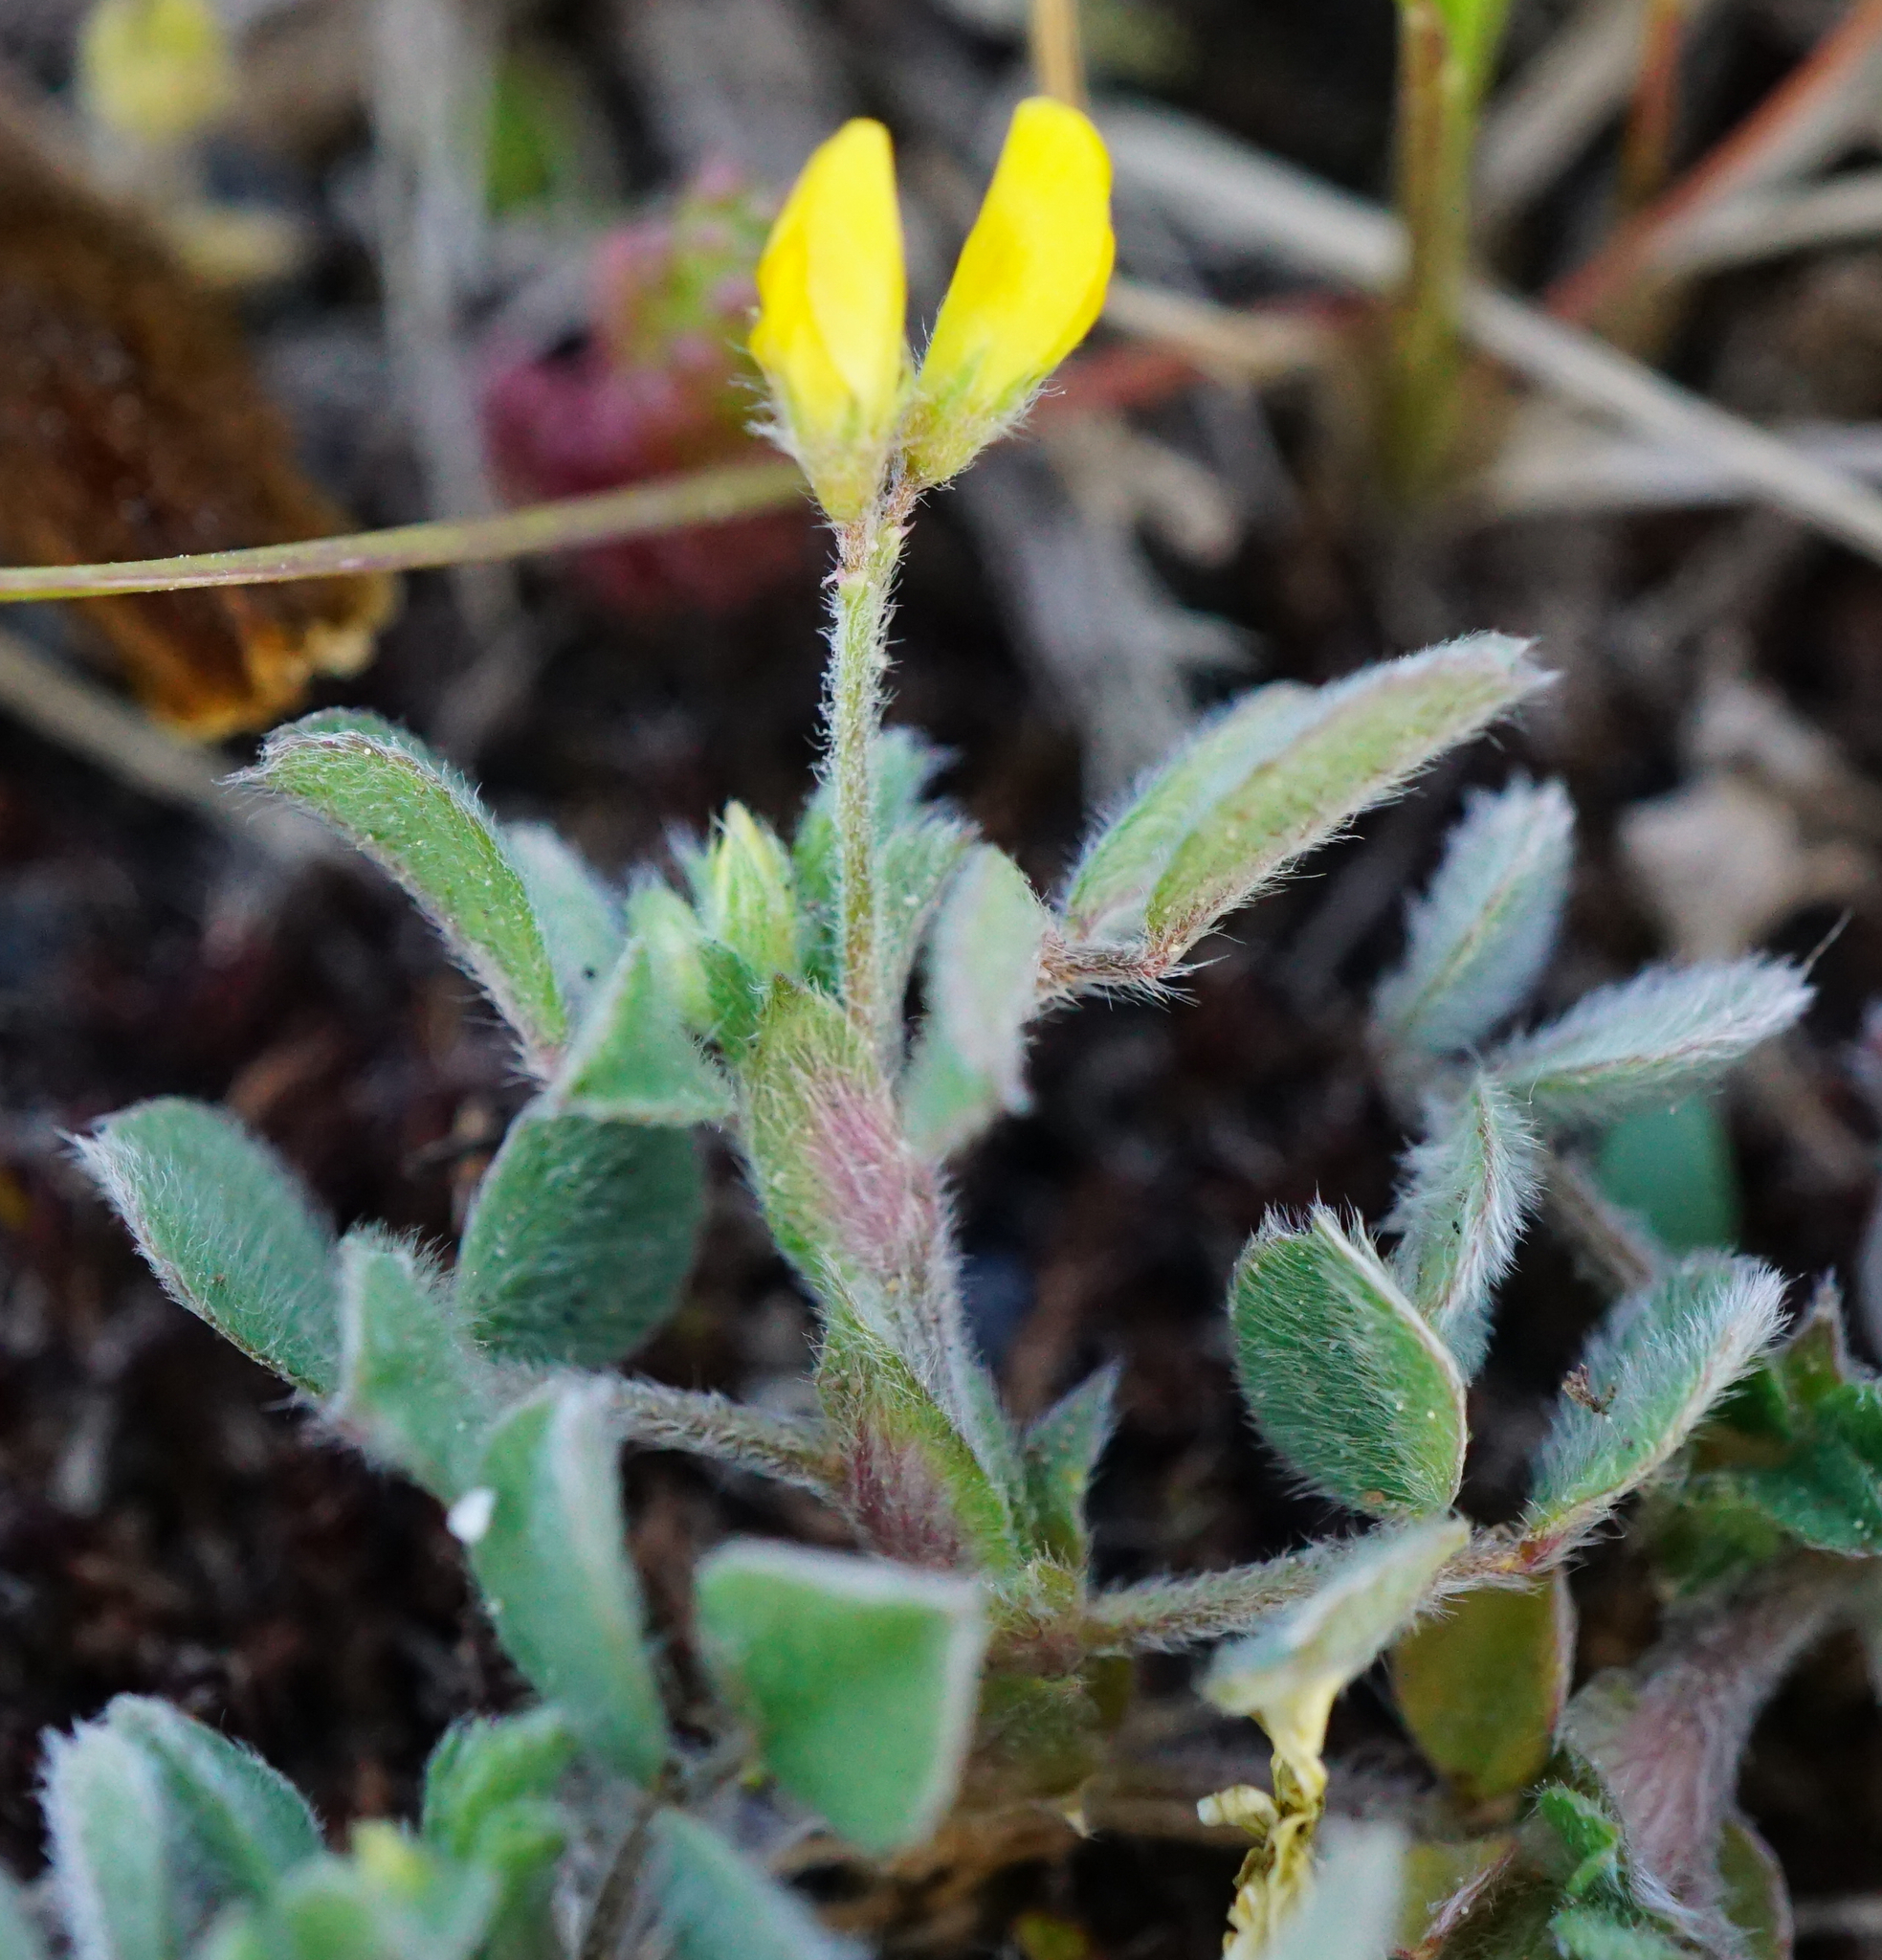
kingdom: Plantae
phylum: Tracheophyta
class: Magnoliopsida
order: Fabales
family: Fabaceae
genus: Medicago
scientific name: Medicago minima
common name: Little bur-clover
